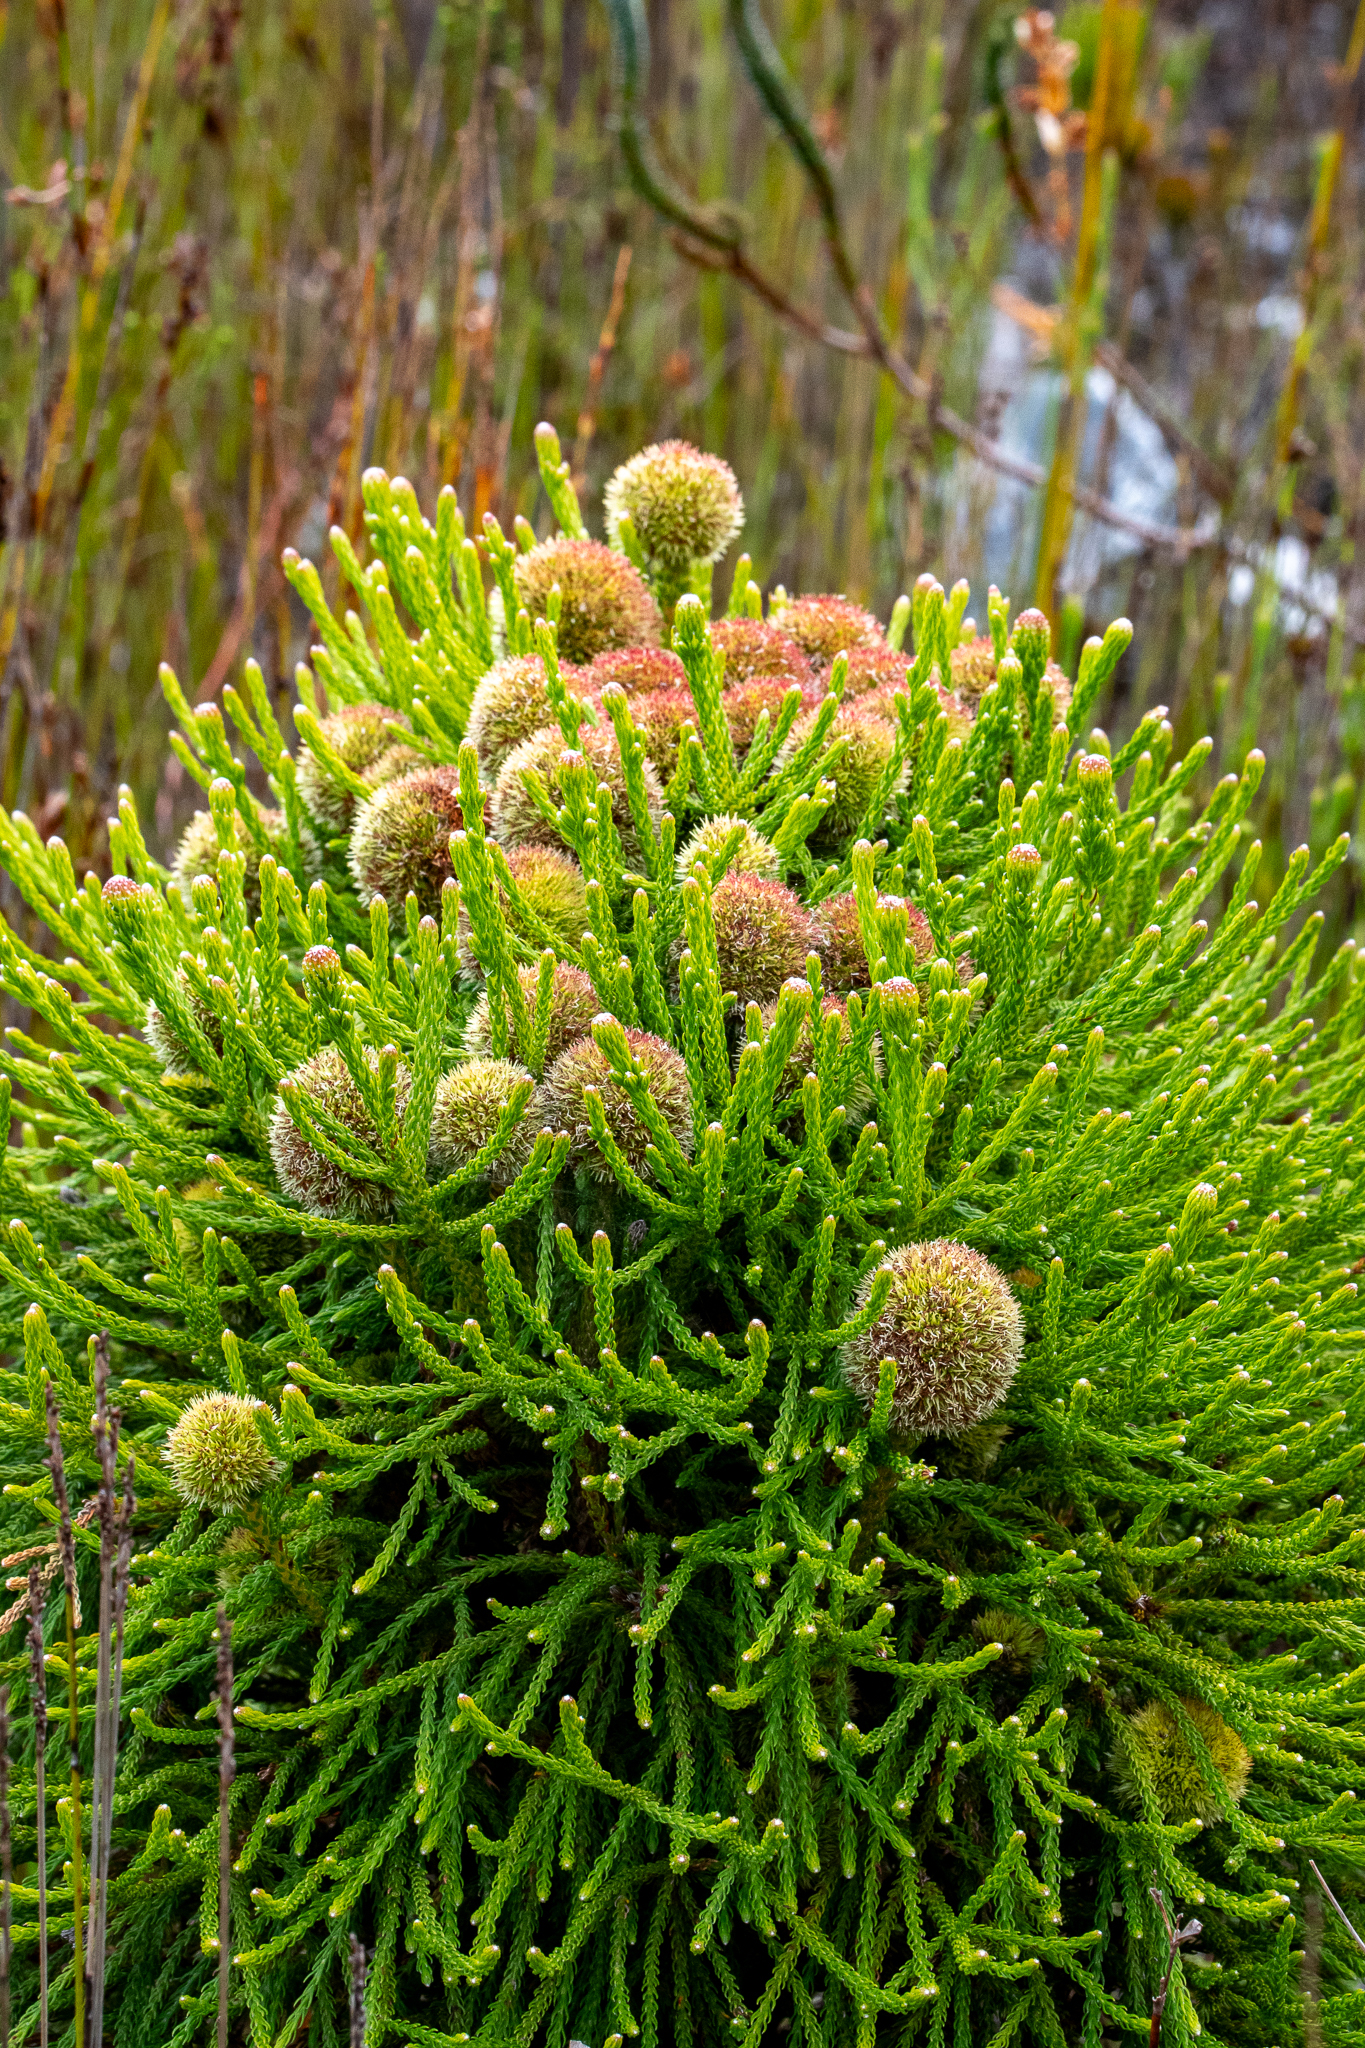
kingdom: Plantae
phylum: Tracheophyta
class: Magnoliopsida
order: Bruniales
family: Bruniaceae
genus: Brunia
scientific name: Brunia fragarioides
